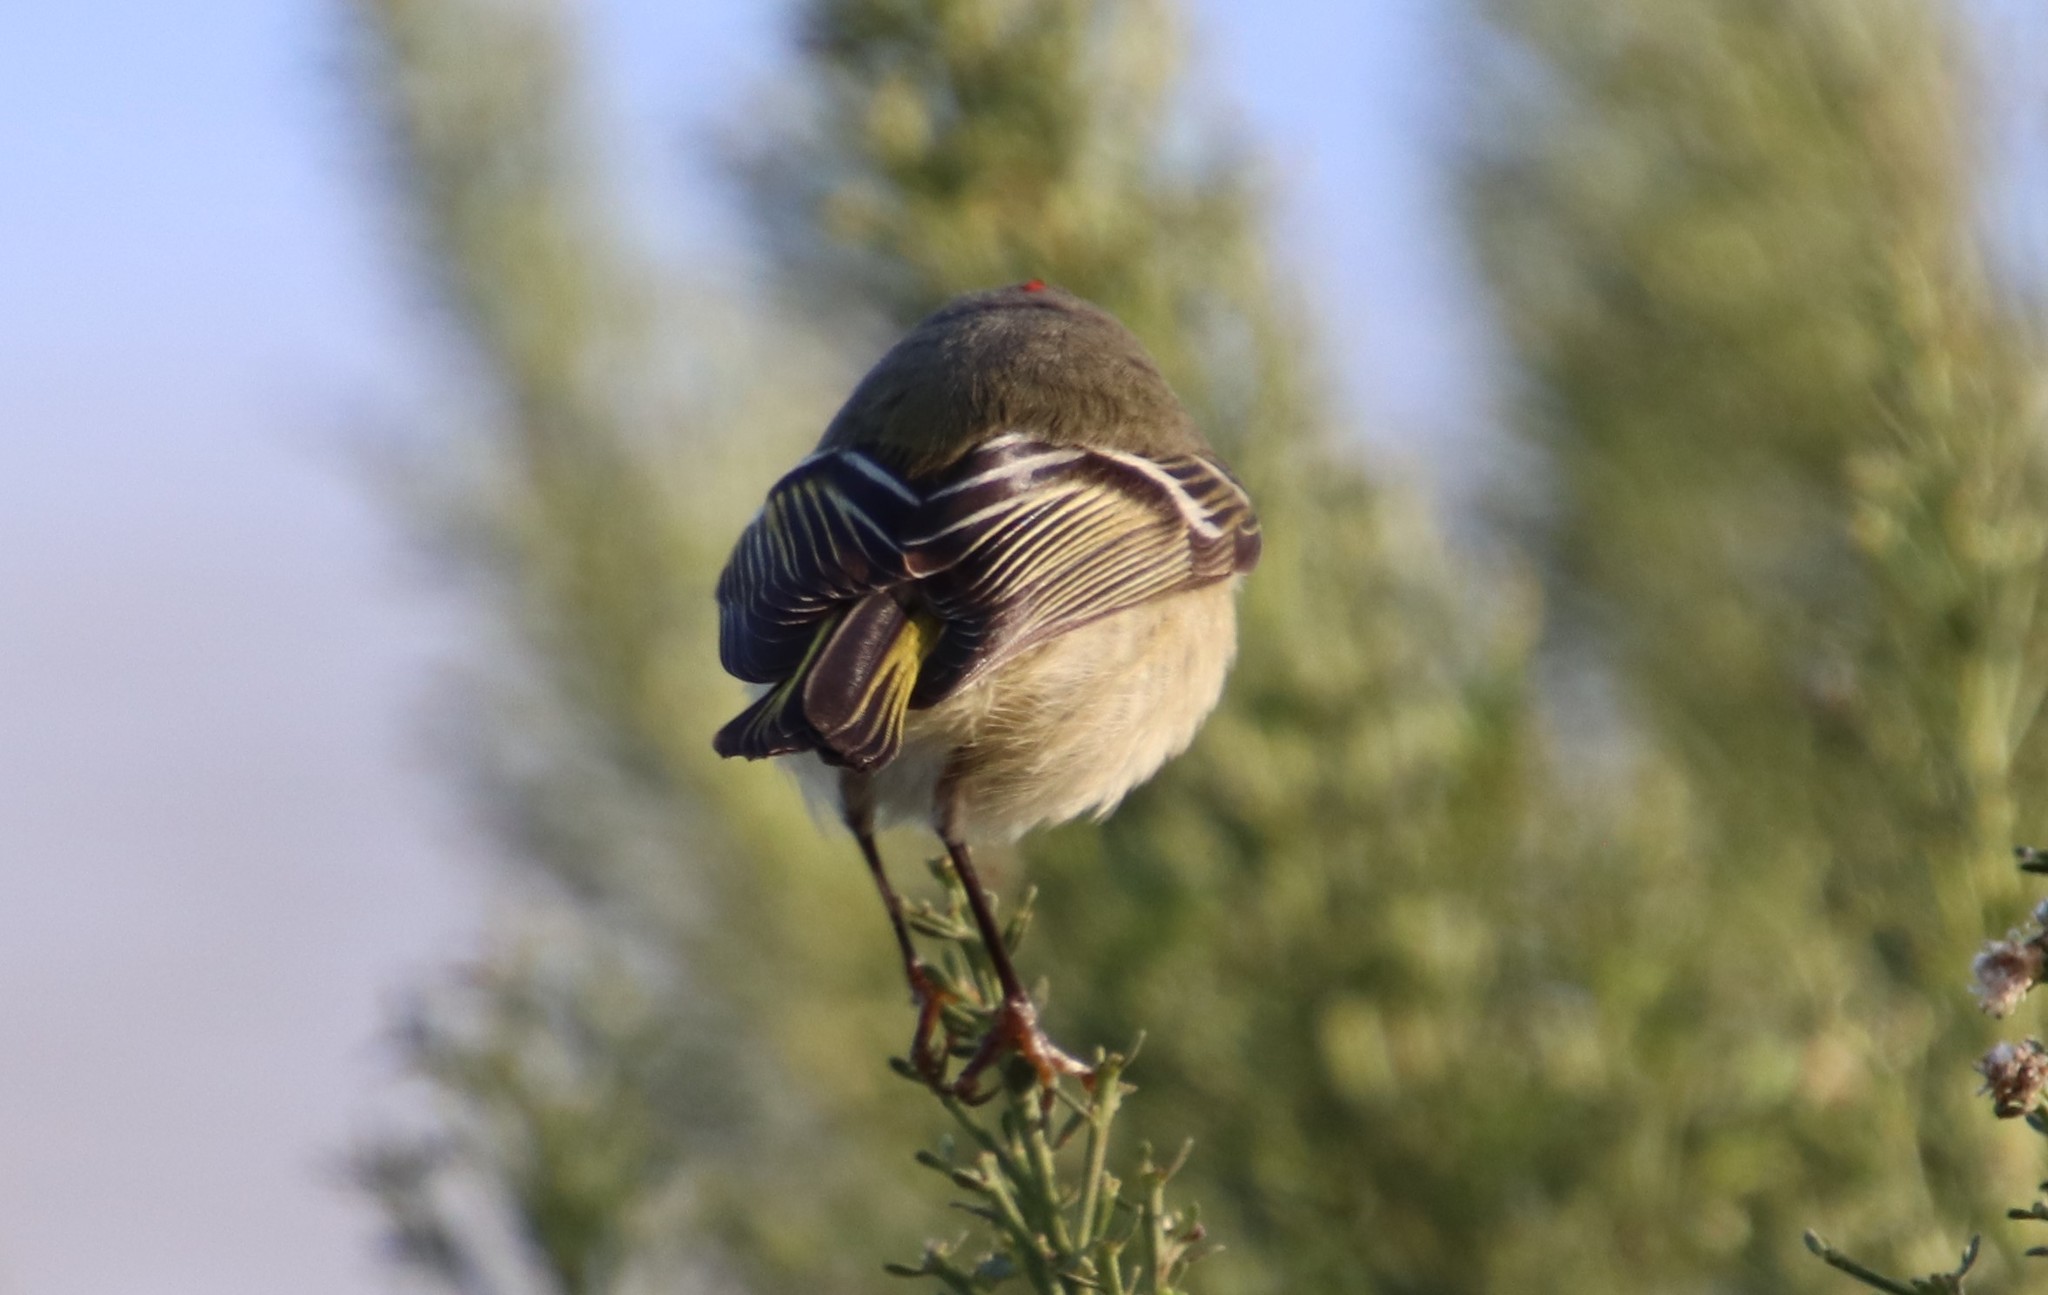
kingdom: Animalia
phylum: Chordata
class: Aves
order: Passeriformes
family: Regulidae
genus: Regulus
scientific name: Regulus calendula
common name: Ruby-crowned kinglet
